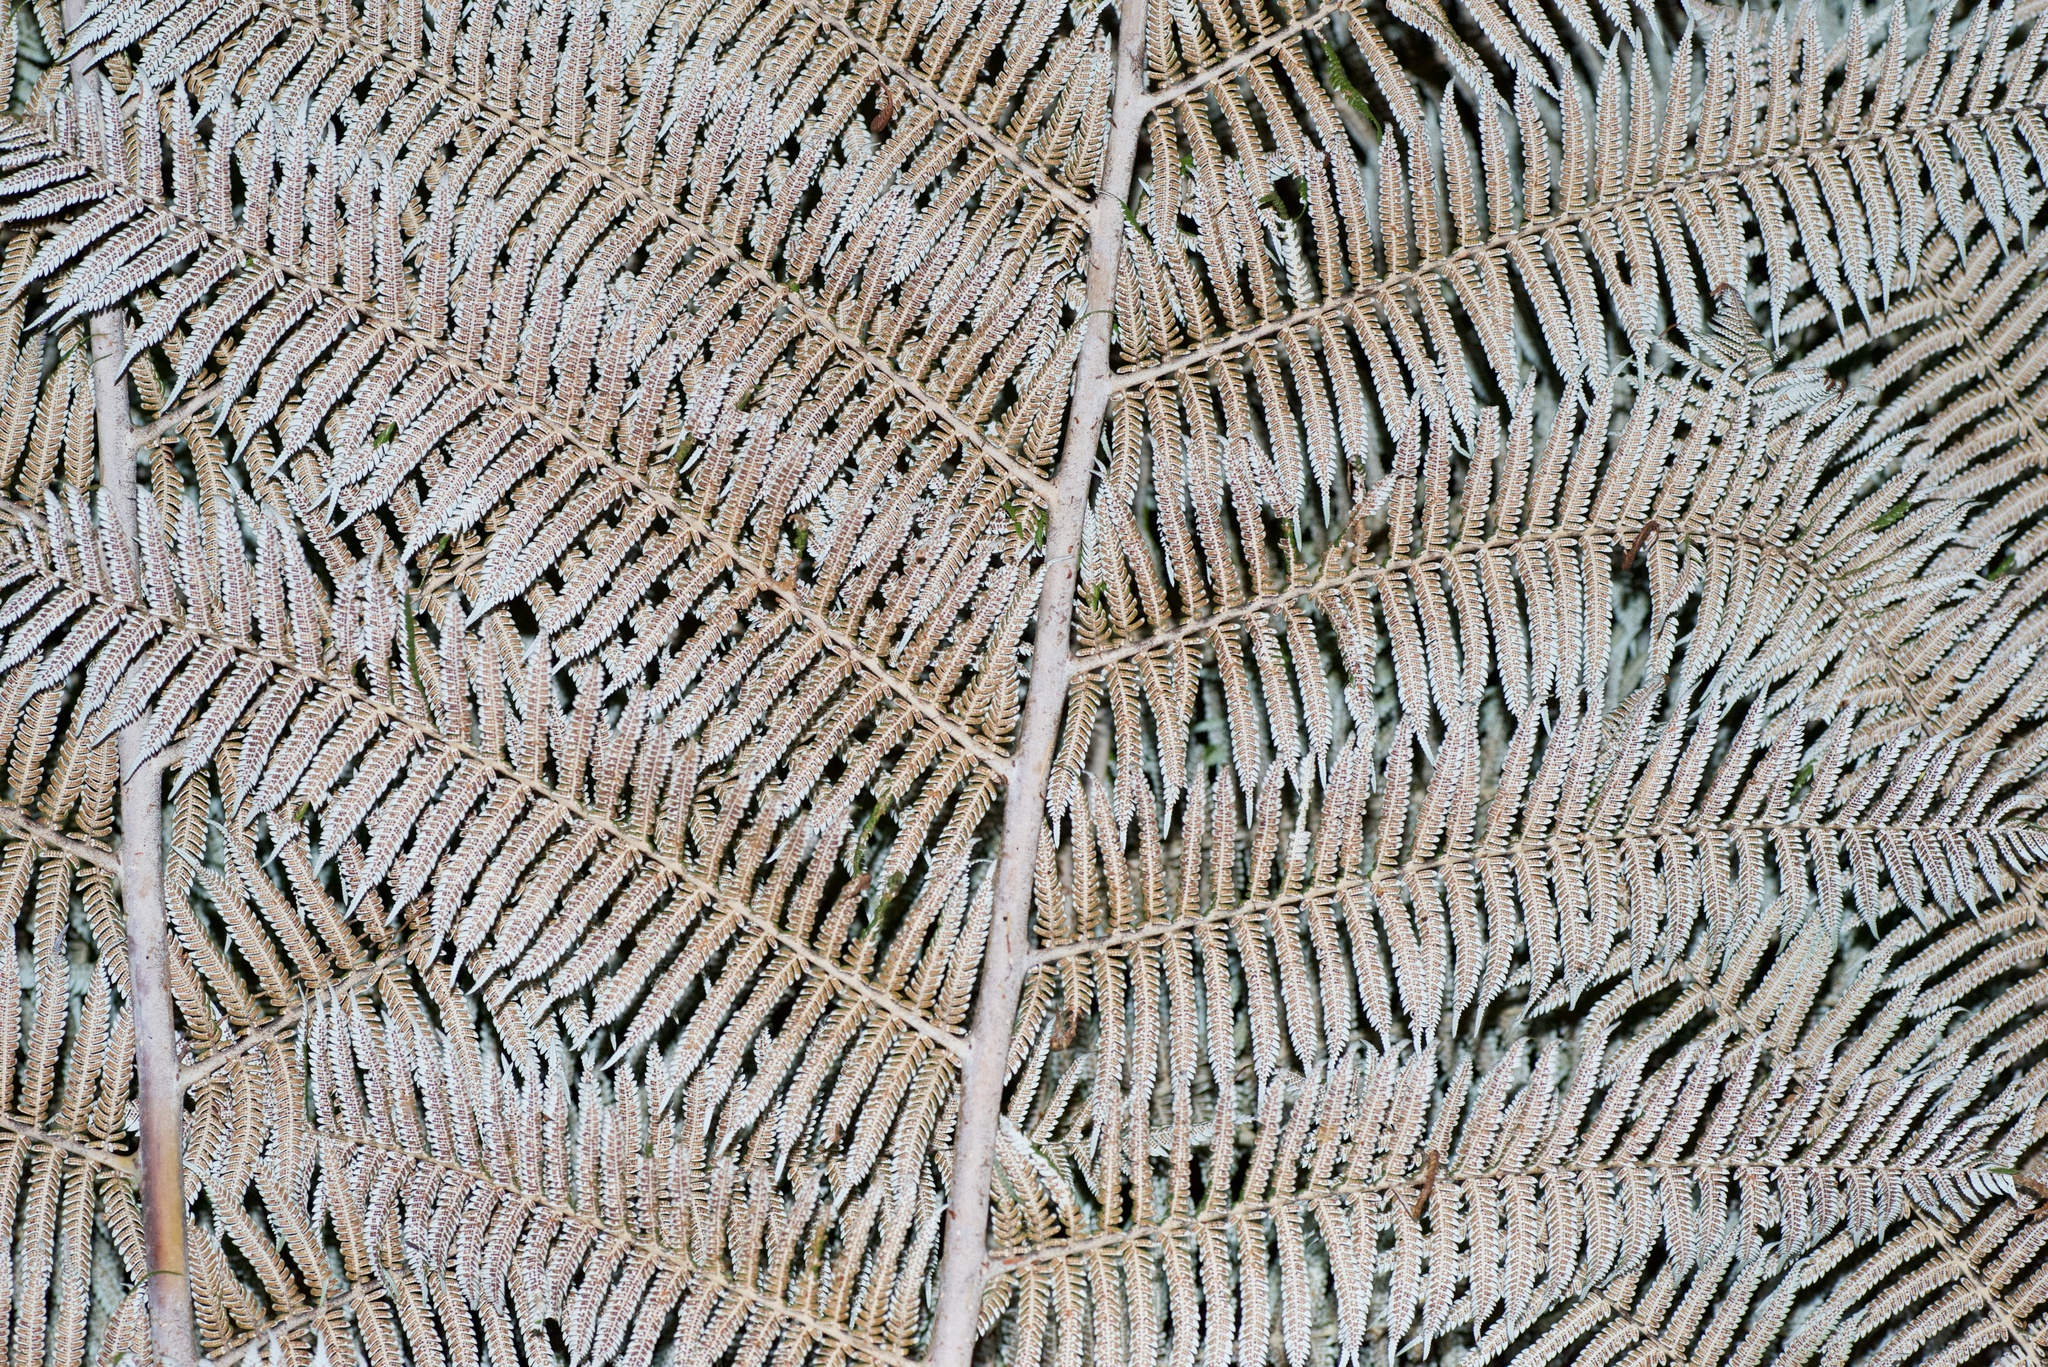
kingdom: Plantae
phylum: Tracheophyta
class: Polypodiopsida
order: Cyatheales
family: Cyatheaceae
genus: Alsophila
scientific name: Alsophila dealbata
